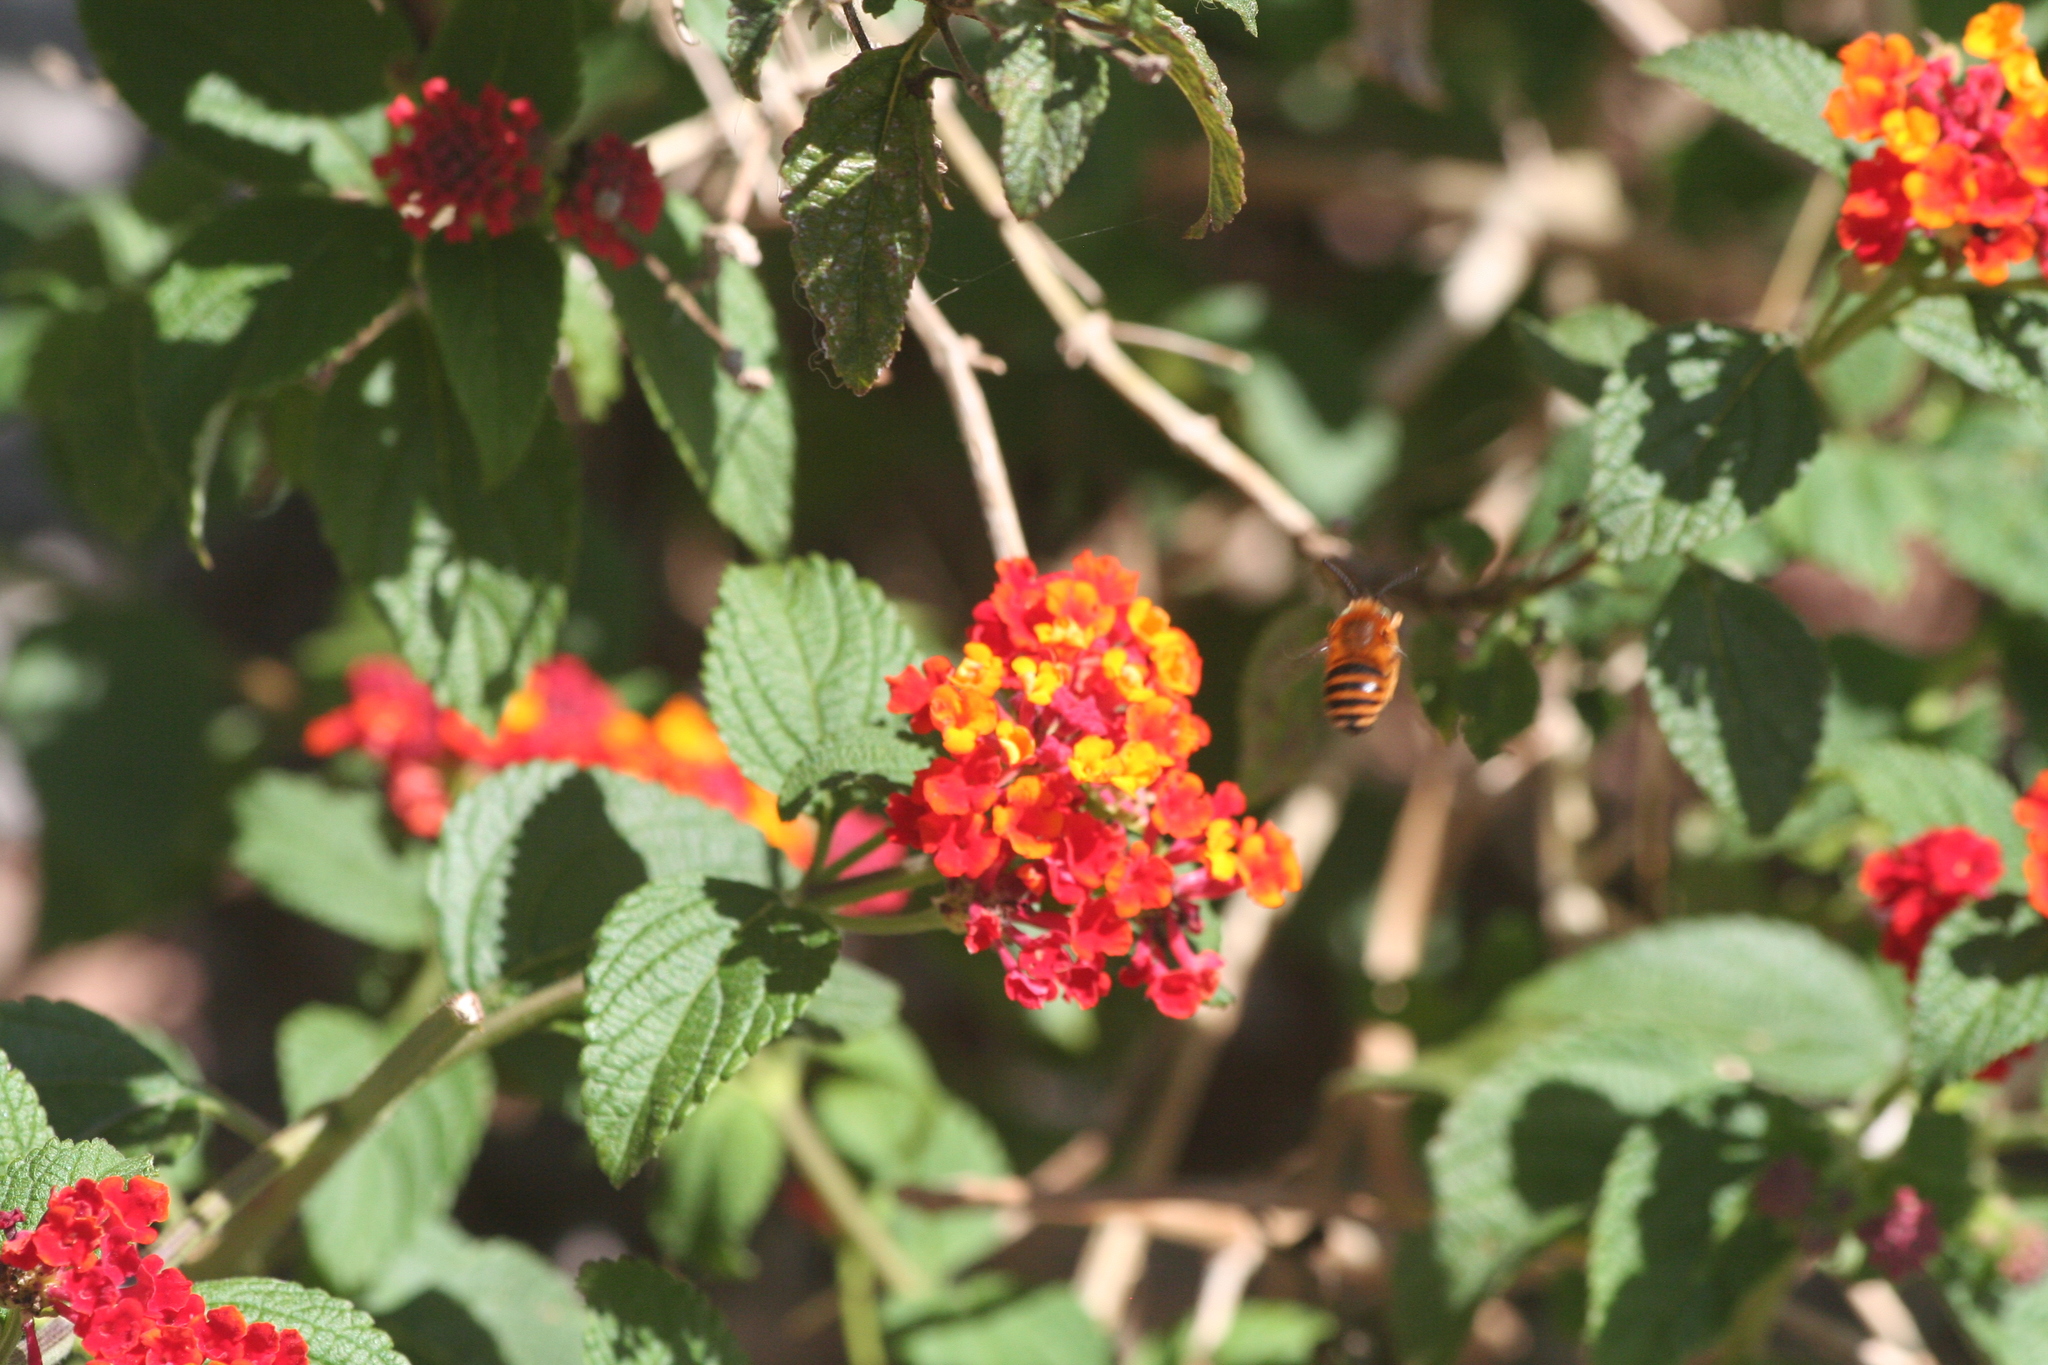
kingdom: Plantae
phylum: Tracheophyta
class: Magnoliopsida
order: Lamiales
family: Verbenaceae
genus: Lantana
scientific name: Lantana camara
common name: Lantana
